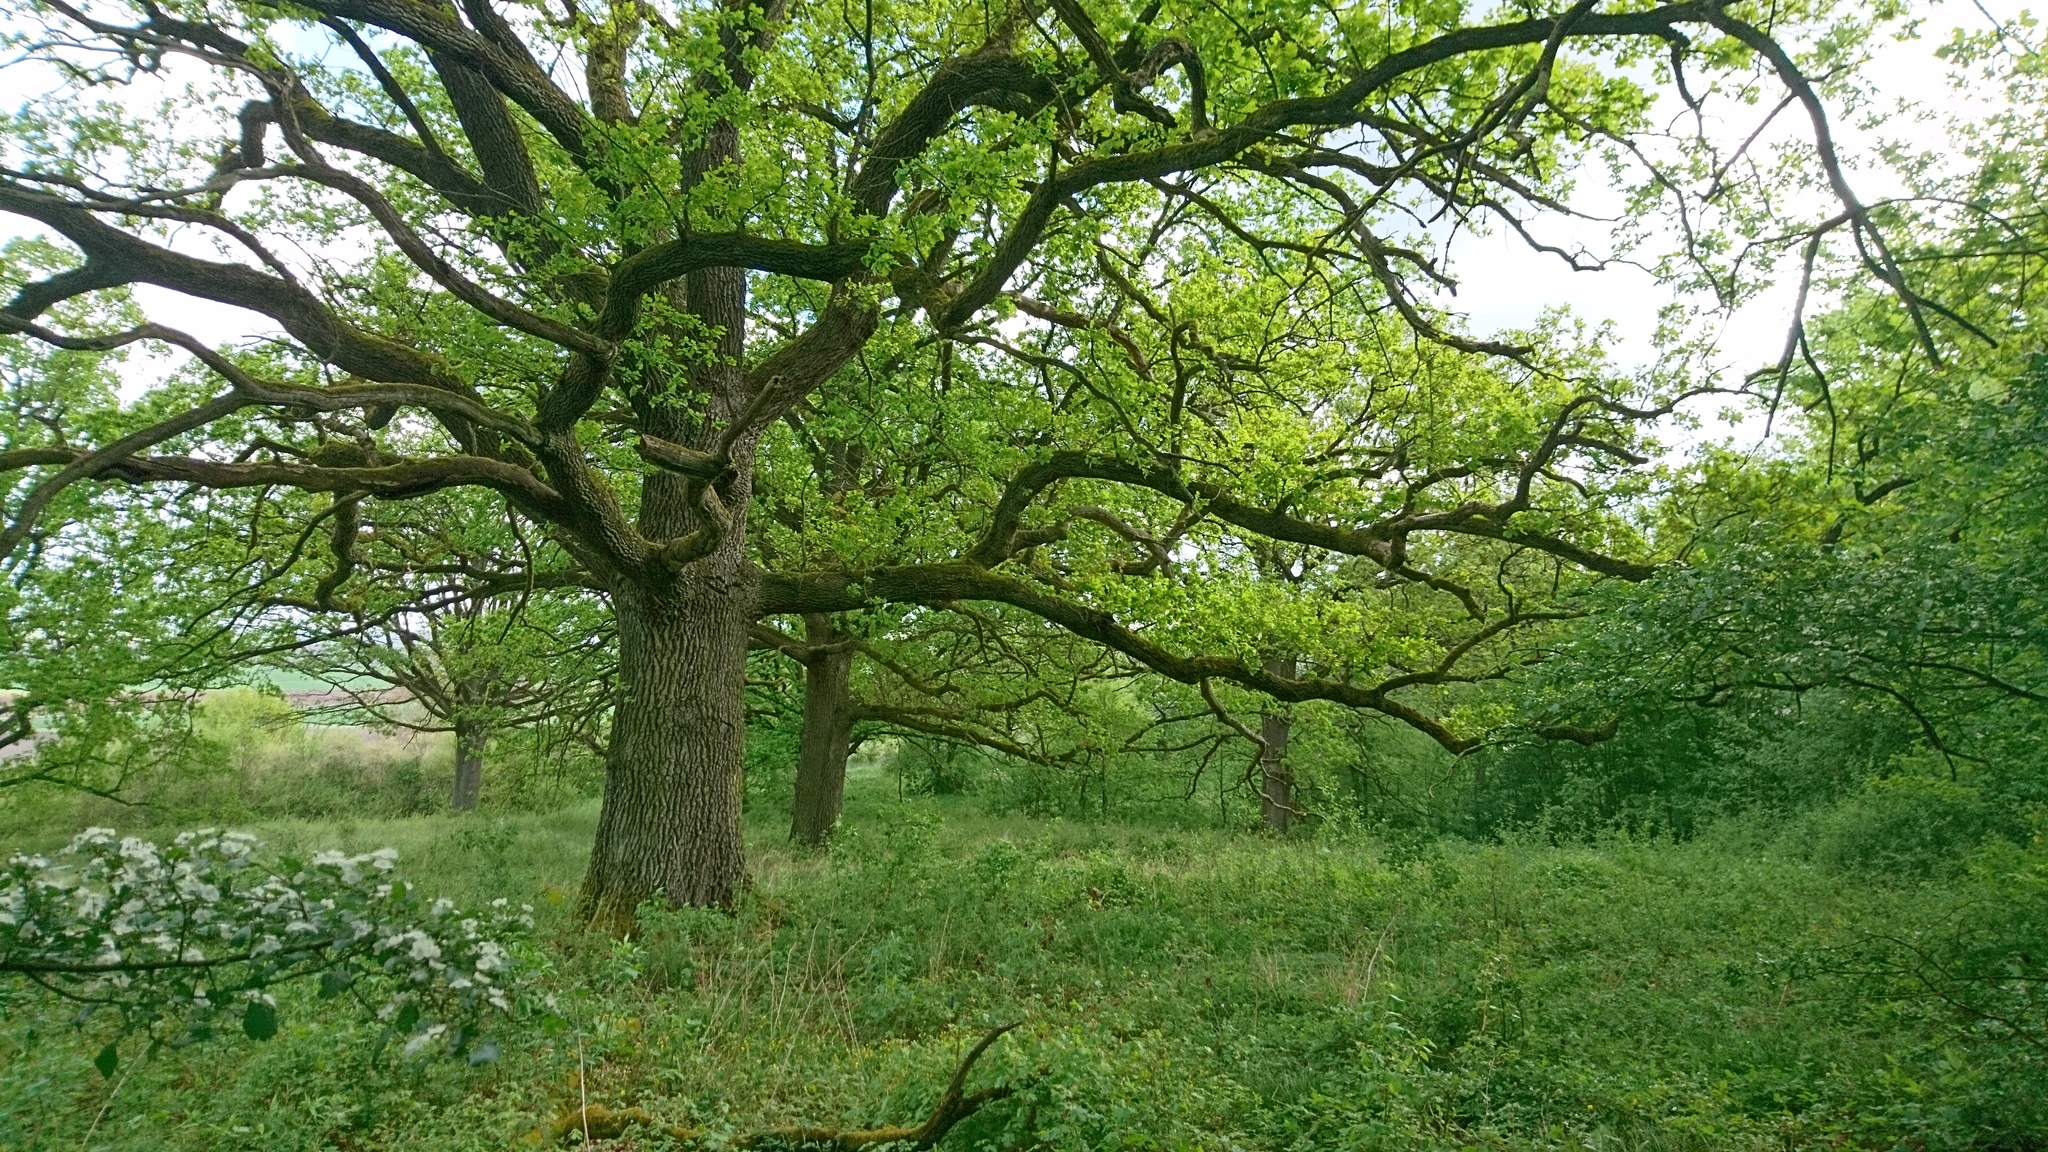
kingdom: Plantae
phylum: Tracheophyta
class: Magnoliopsida
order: Fagales
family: Fagaceae
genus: Quercus
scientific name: Quercus robur
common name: Pedunculate oak
